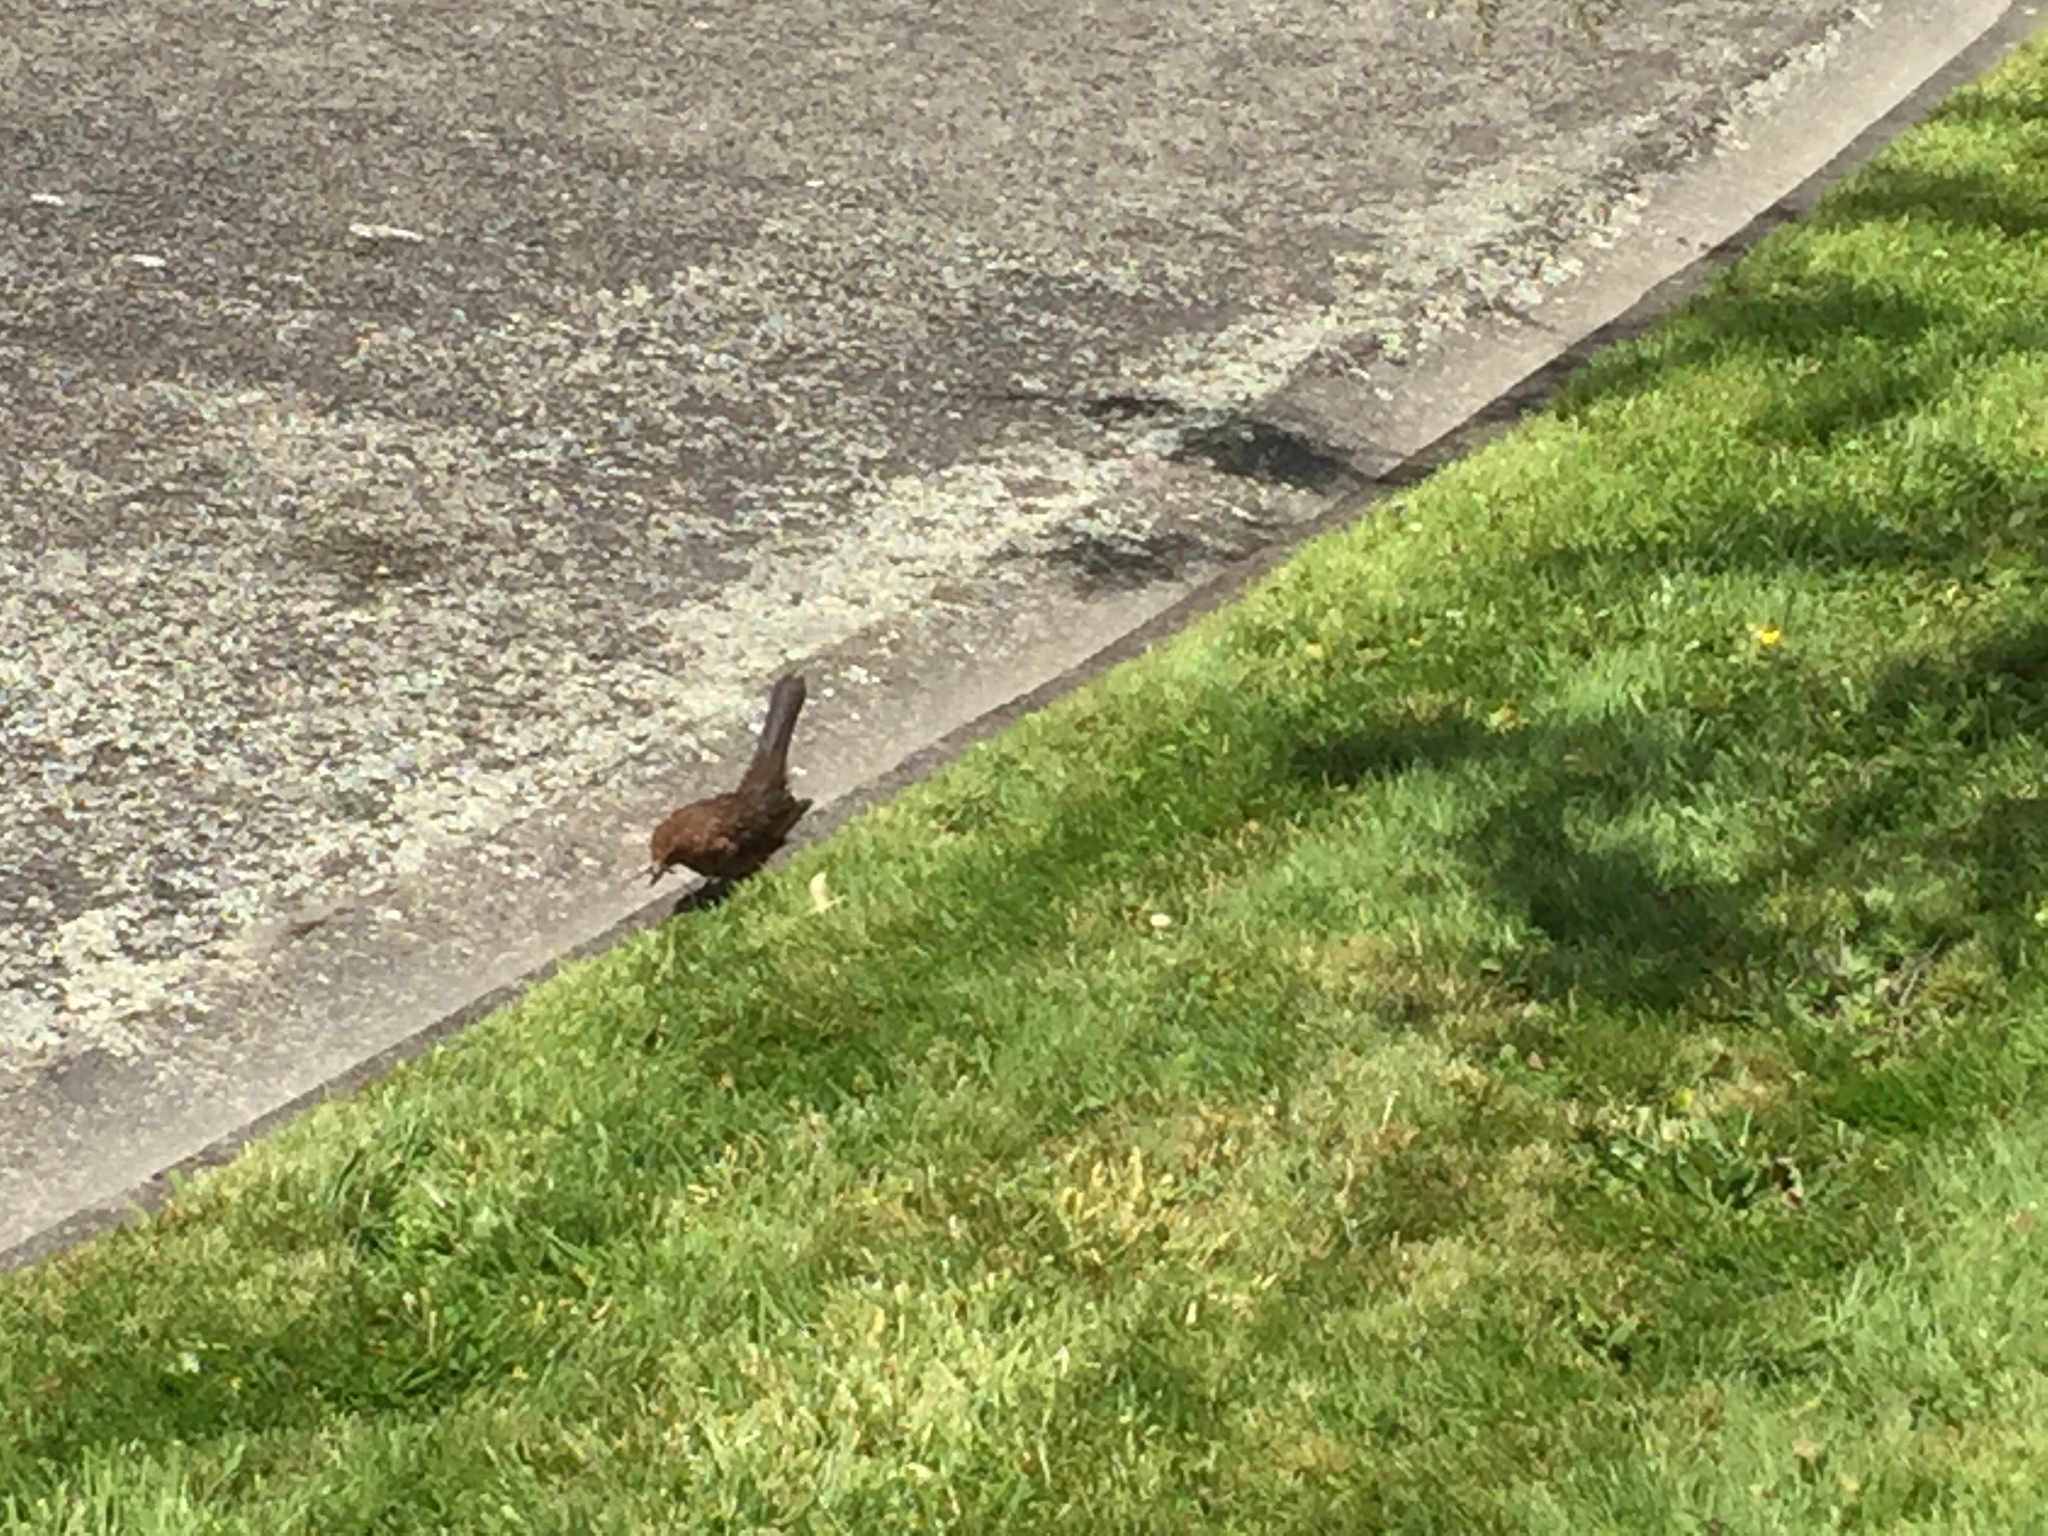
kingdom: Animalia
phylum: Chordata
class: Aves
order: Passeriformes
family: Turdidae
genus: Turdus
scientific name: Turdus merula
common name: Common blackbird
